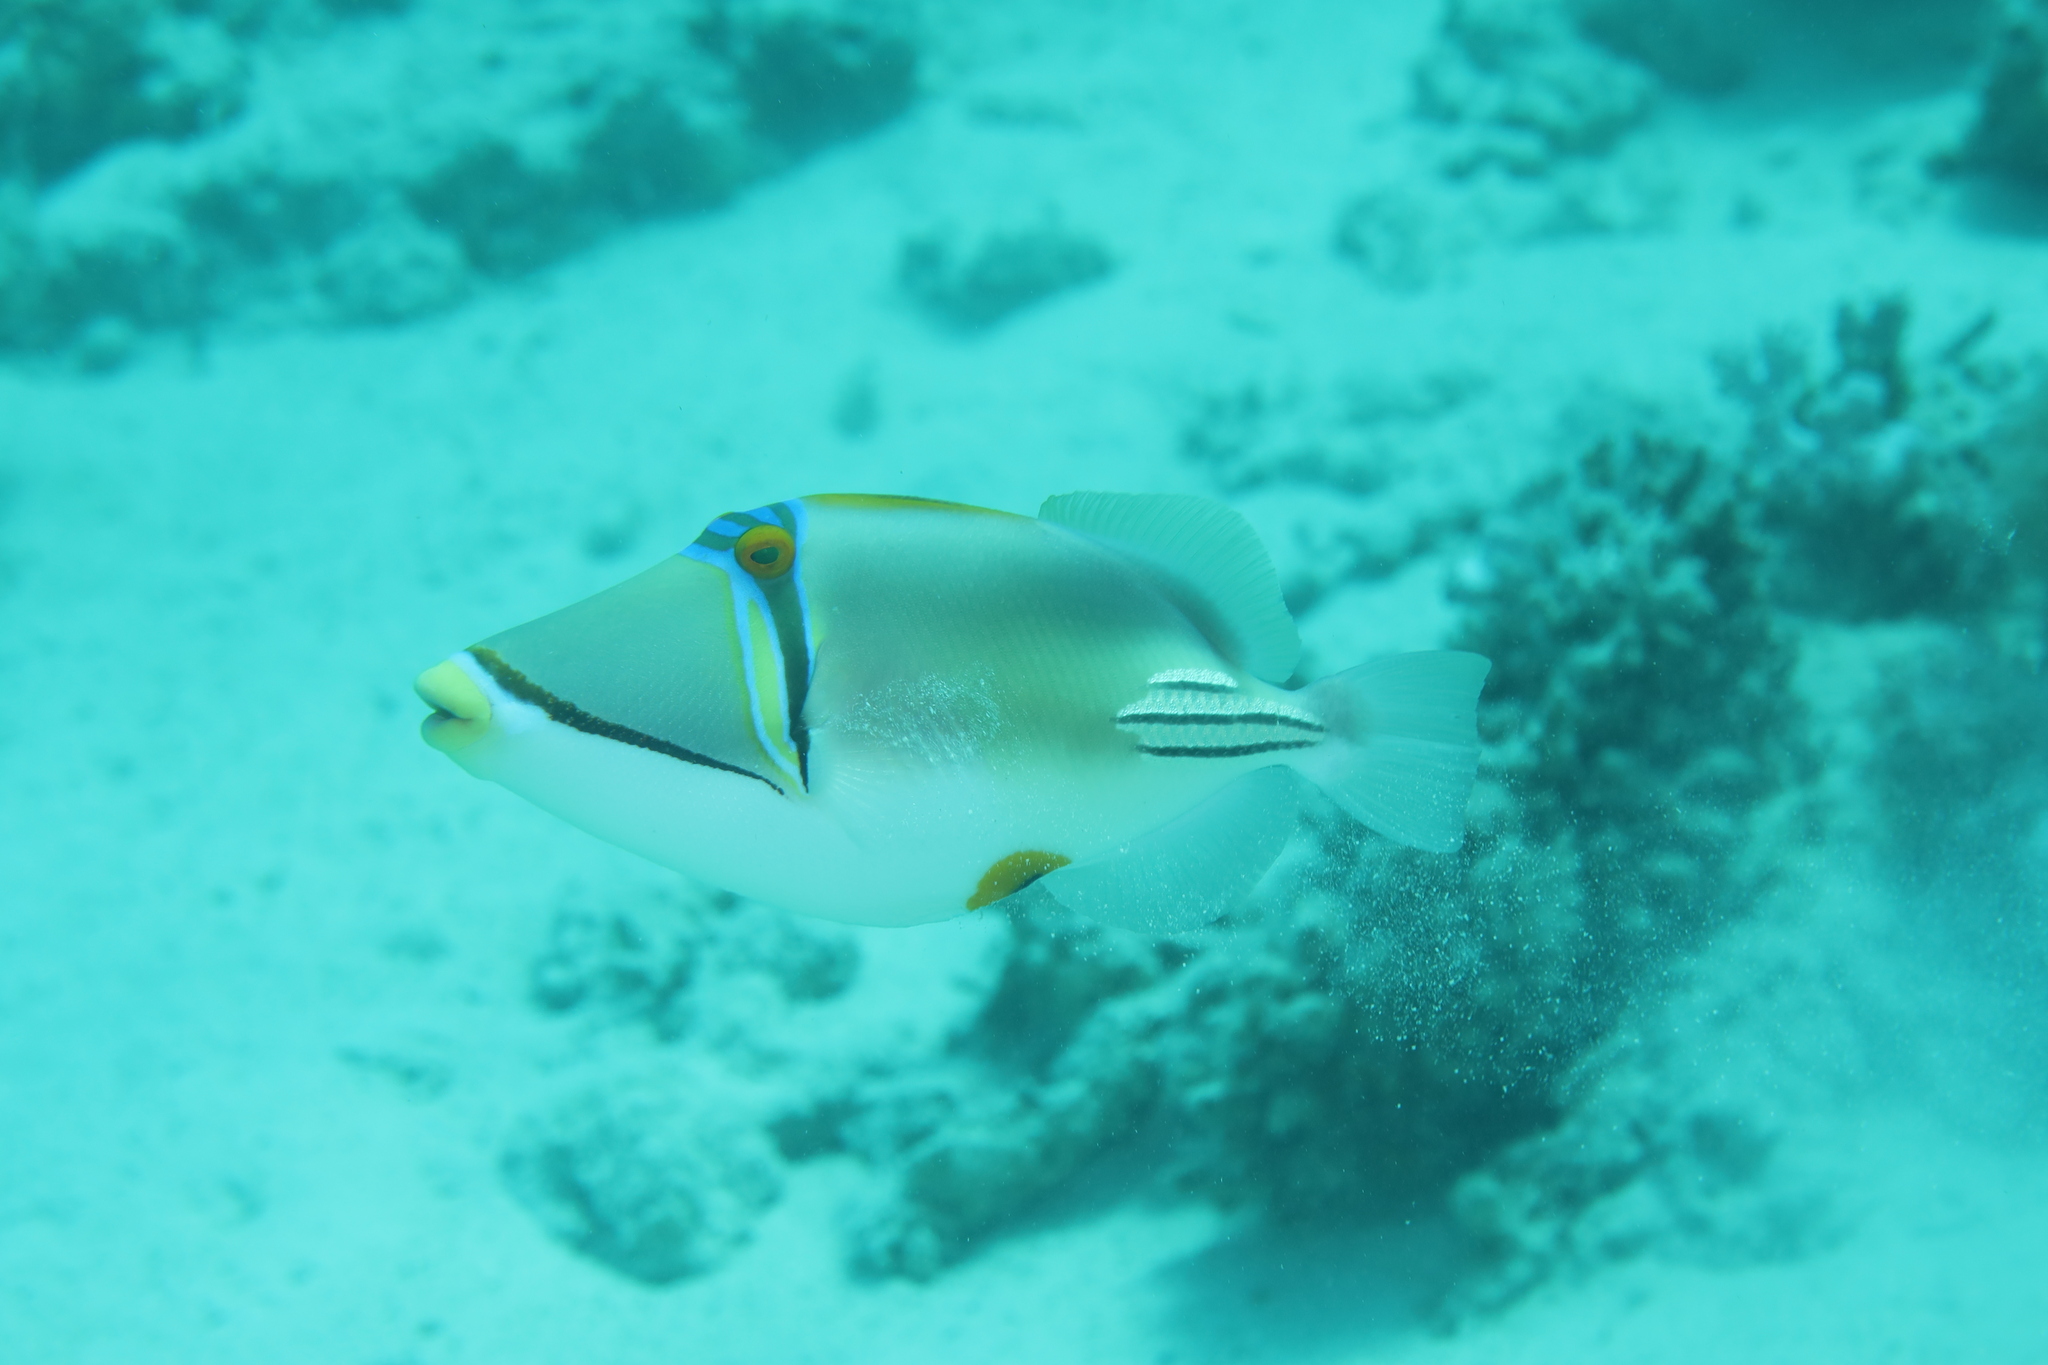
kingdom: Animalia
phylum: Chordata
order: Tetraodontiformes
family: Balistidae
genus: Rhinecanthus
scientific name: Rhinecanthus assasi
